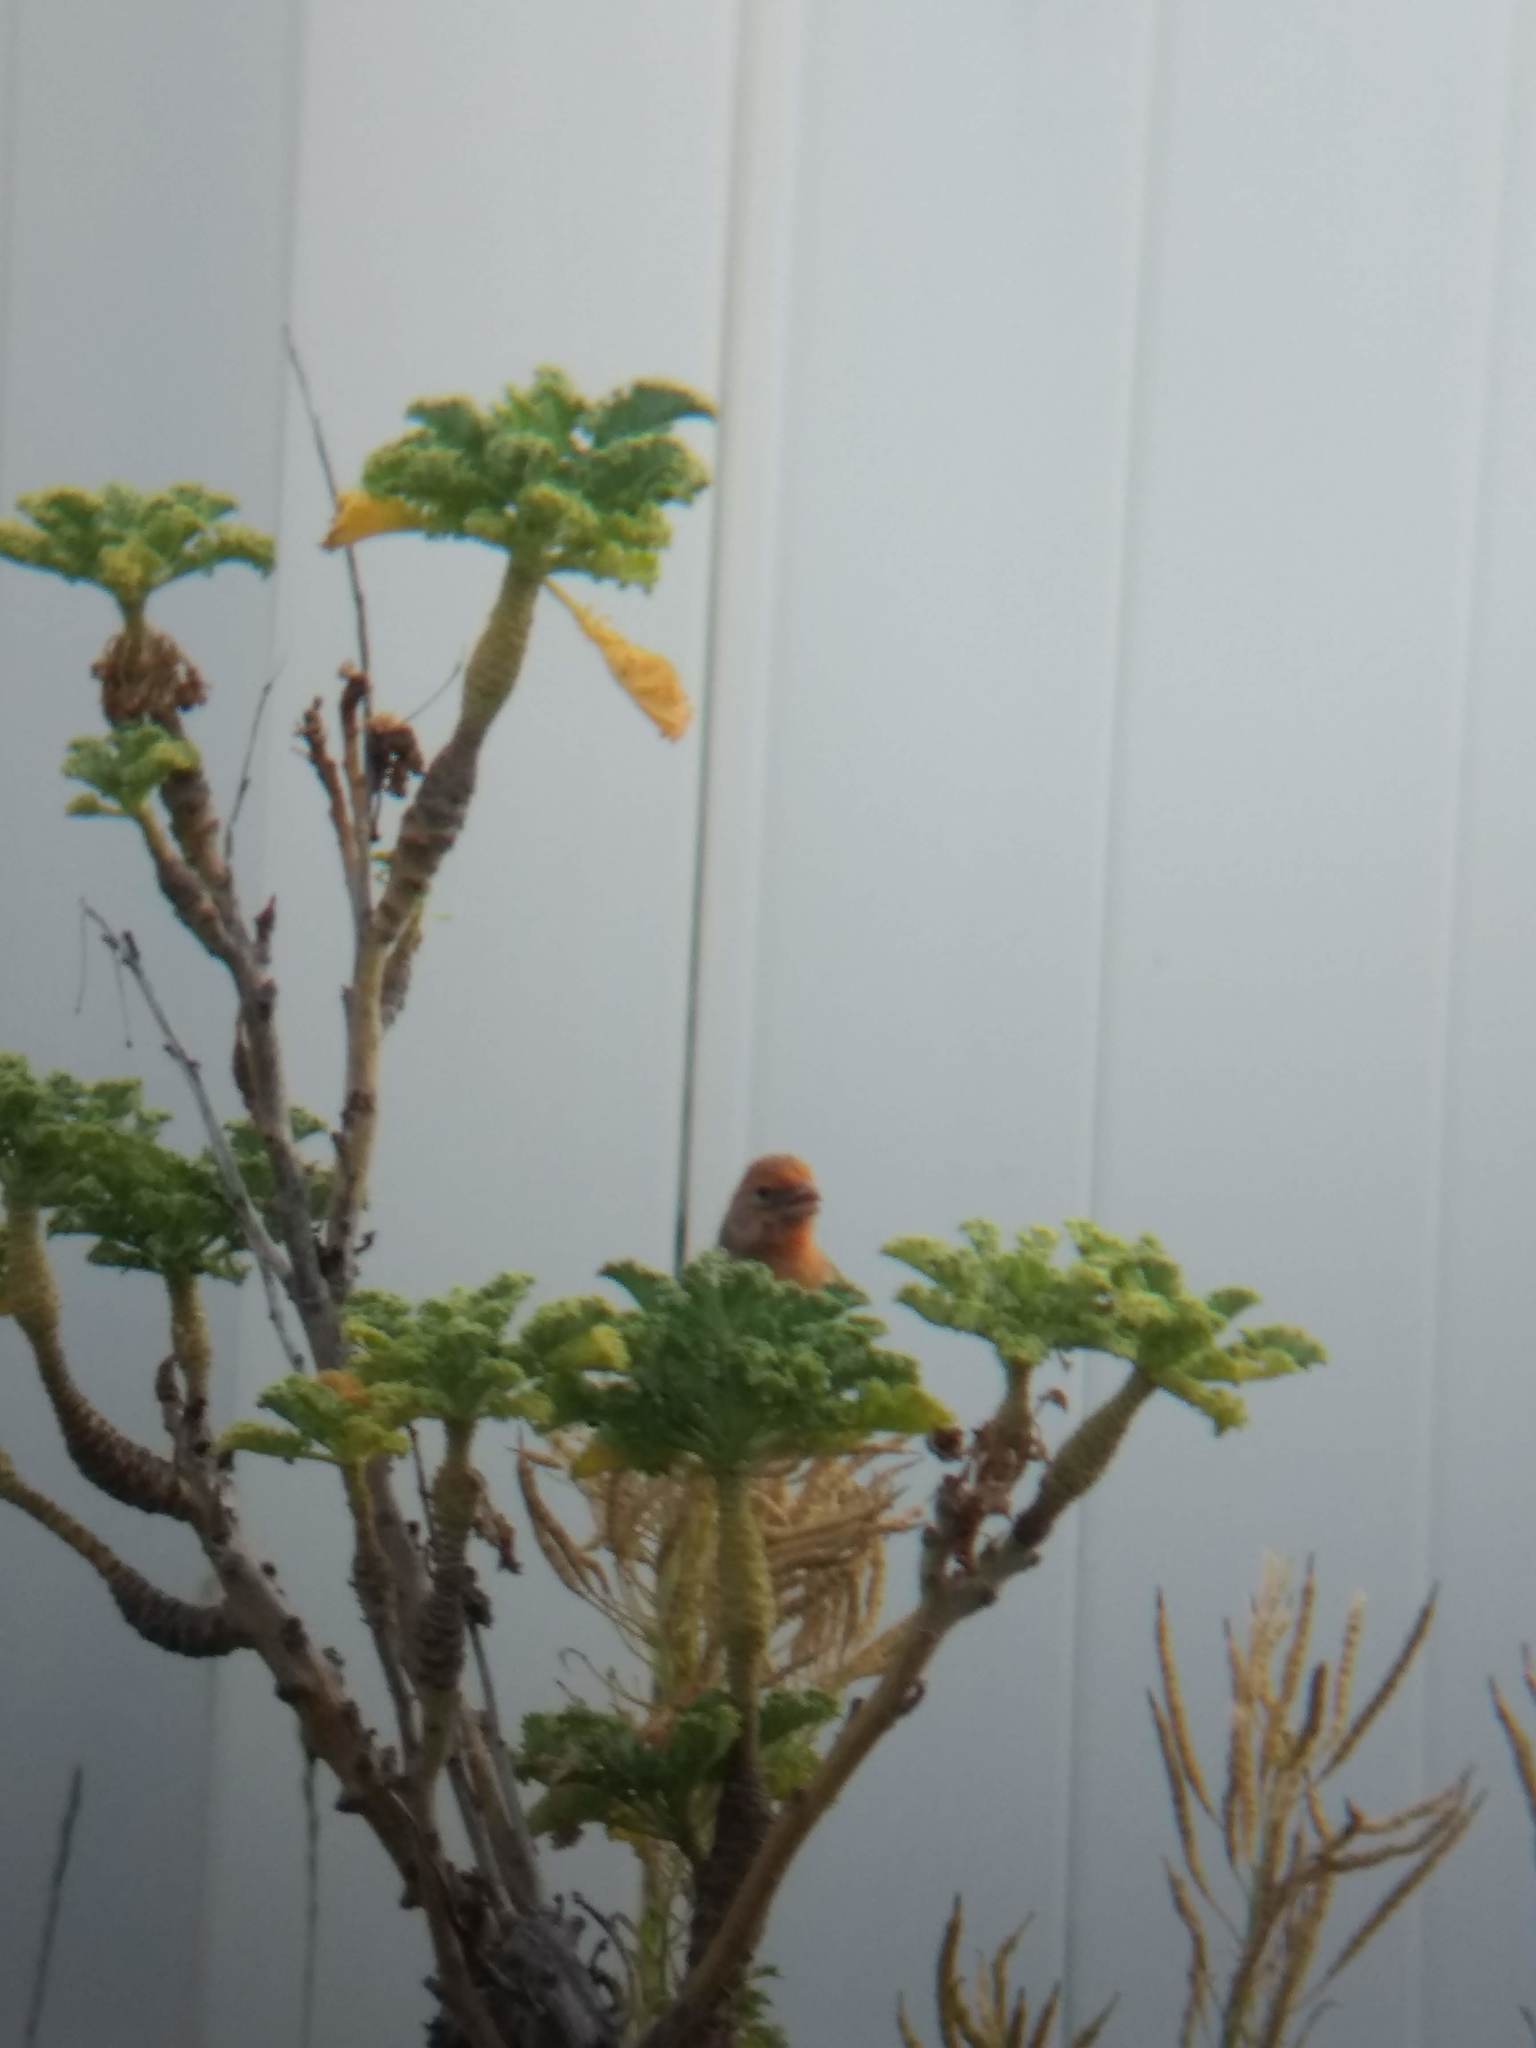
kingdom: Animalia
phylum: Chordata
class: Aves
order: Passeriformes
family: Fringillidae
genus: Haemorhous
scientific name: Haemorhous mexicanus
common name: House finch
